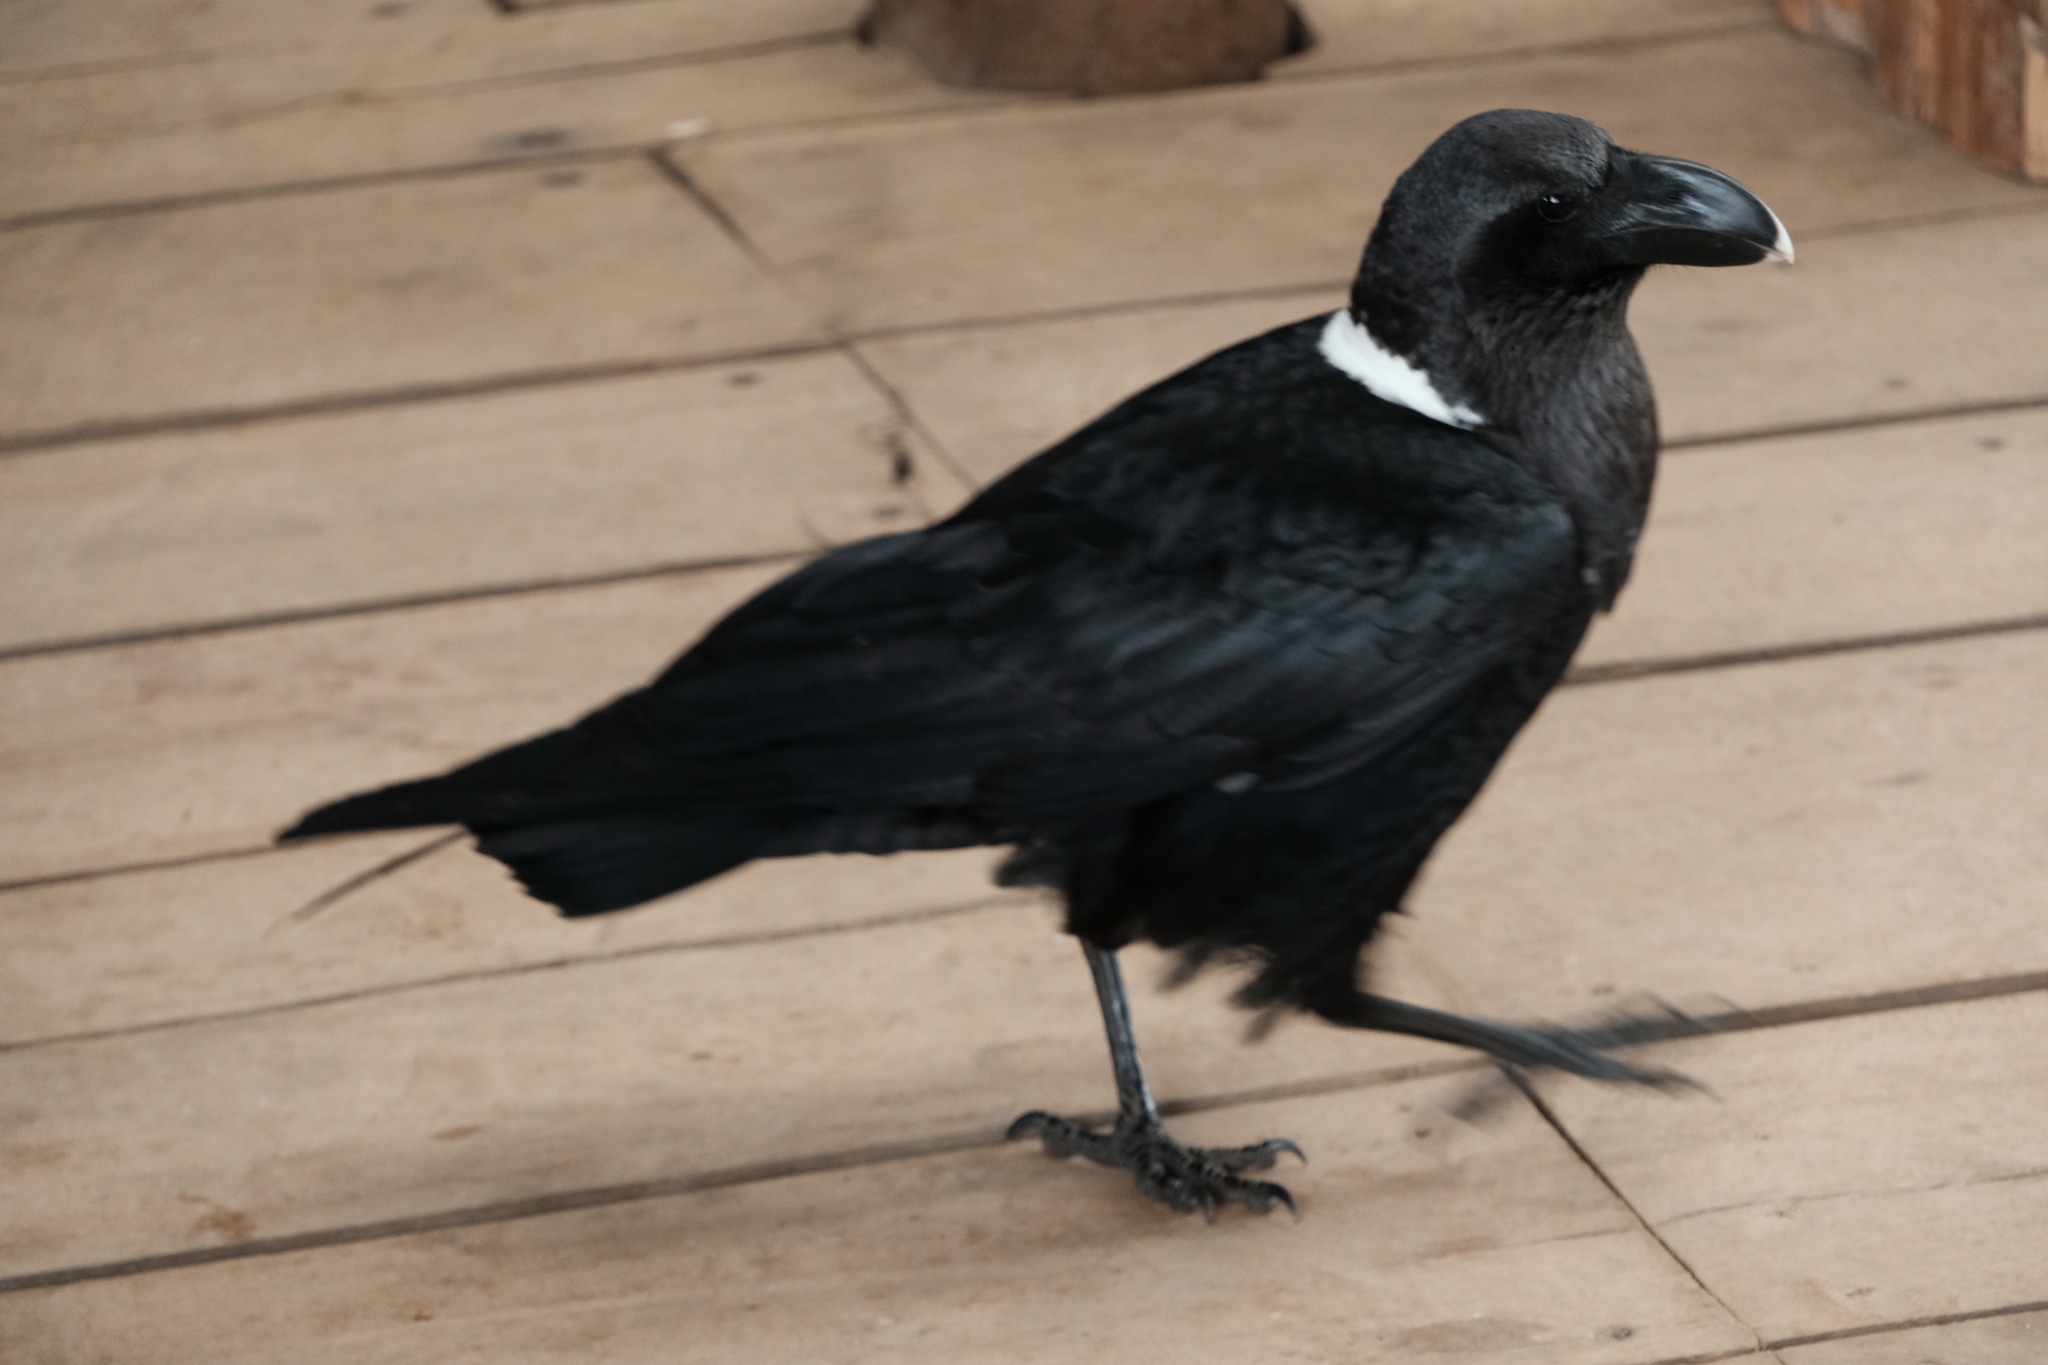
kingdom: Animalia
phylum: Chordata
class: Aves
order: Passeriformes
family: Corvidae
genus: Corvus
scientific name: Corvus albicollis
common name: White-necked raven
